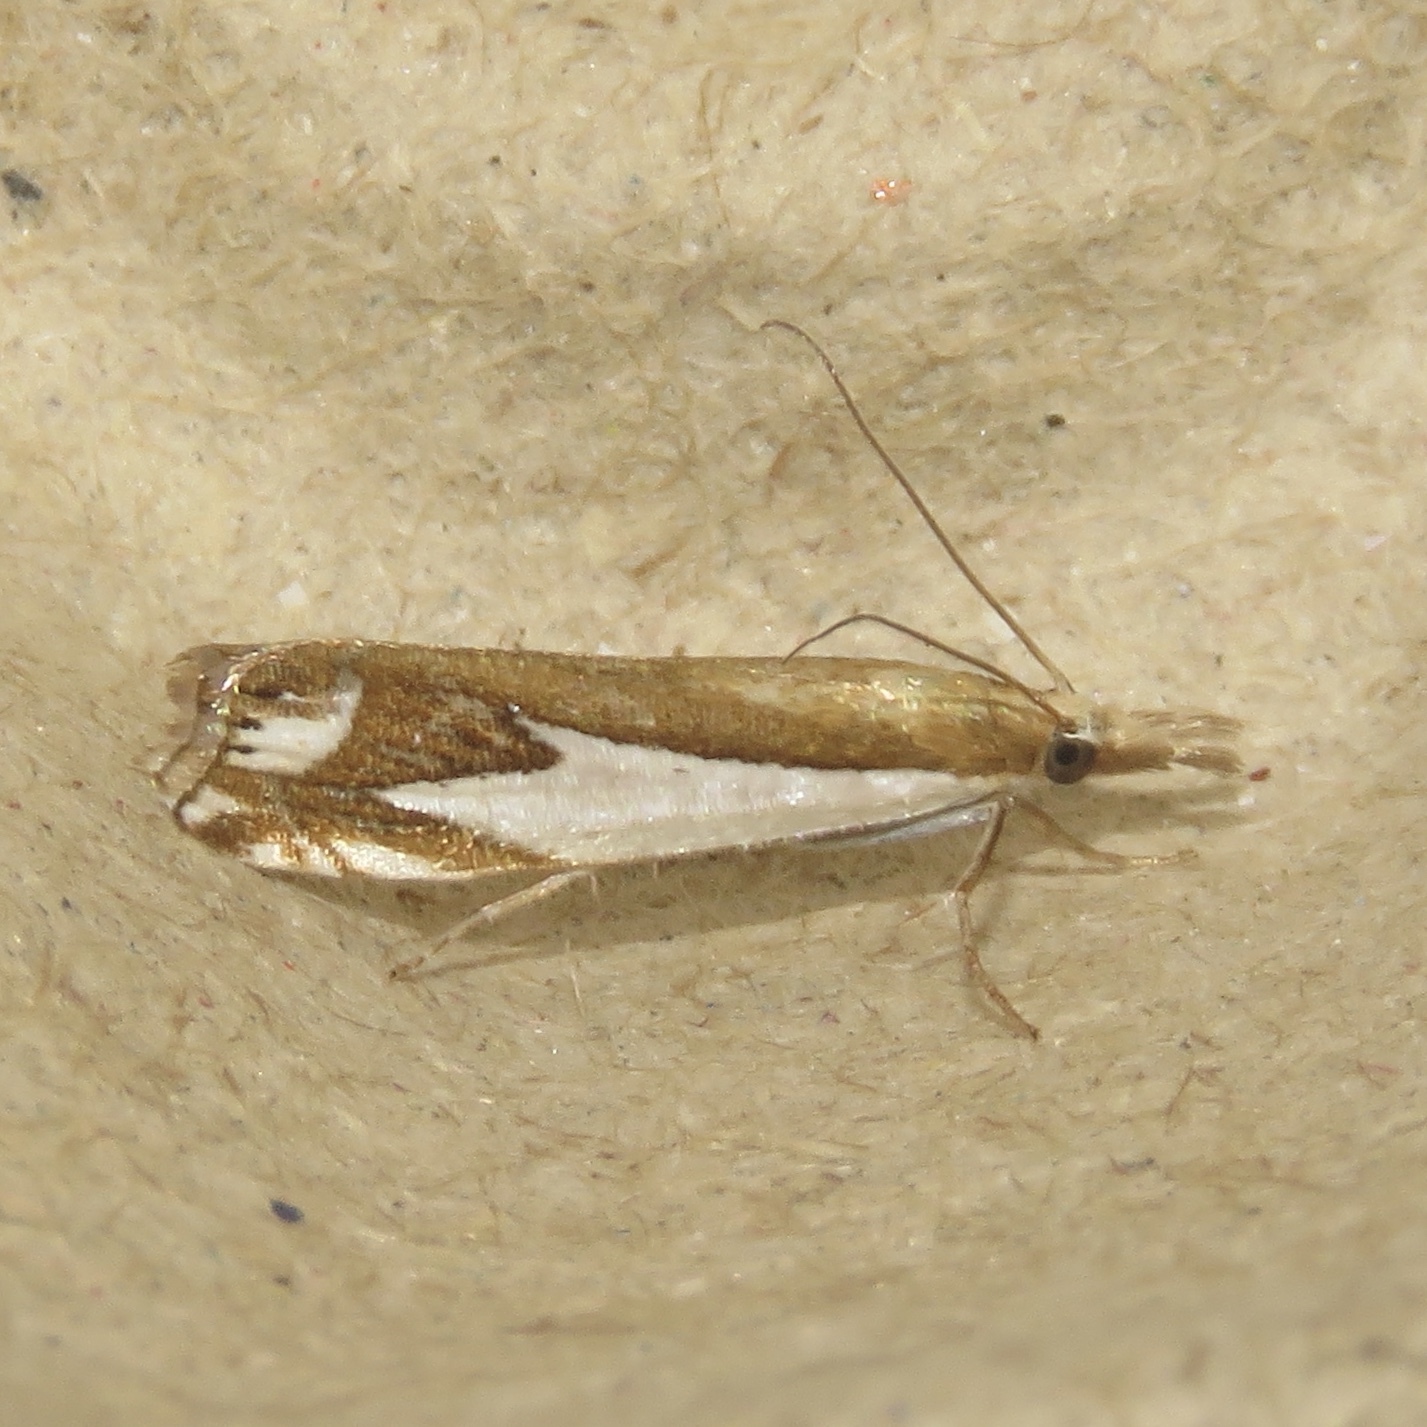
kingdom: Animalia
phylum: Arthropoda
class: Insecta
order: Lepidoptera
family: Crambidae
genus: Crambus
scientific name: Crambus bidens
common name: Forked grass-veneer
